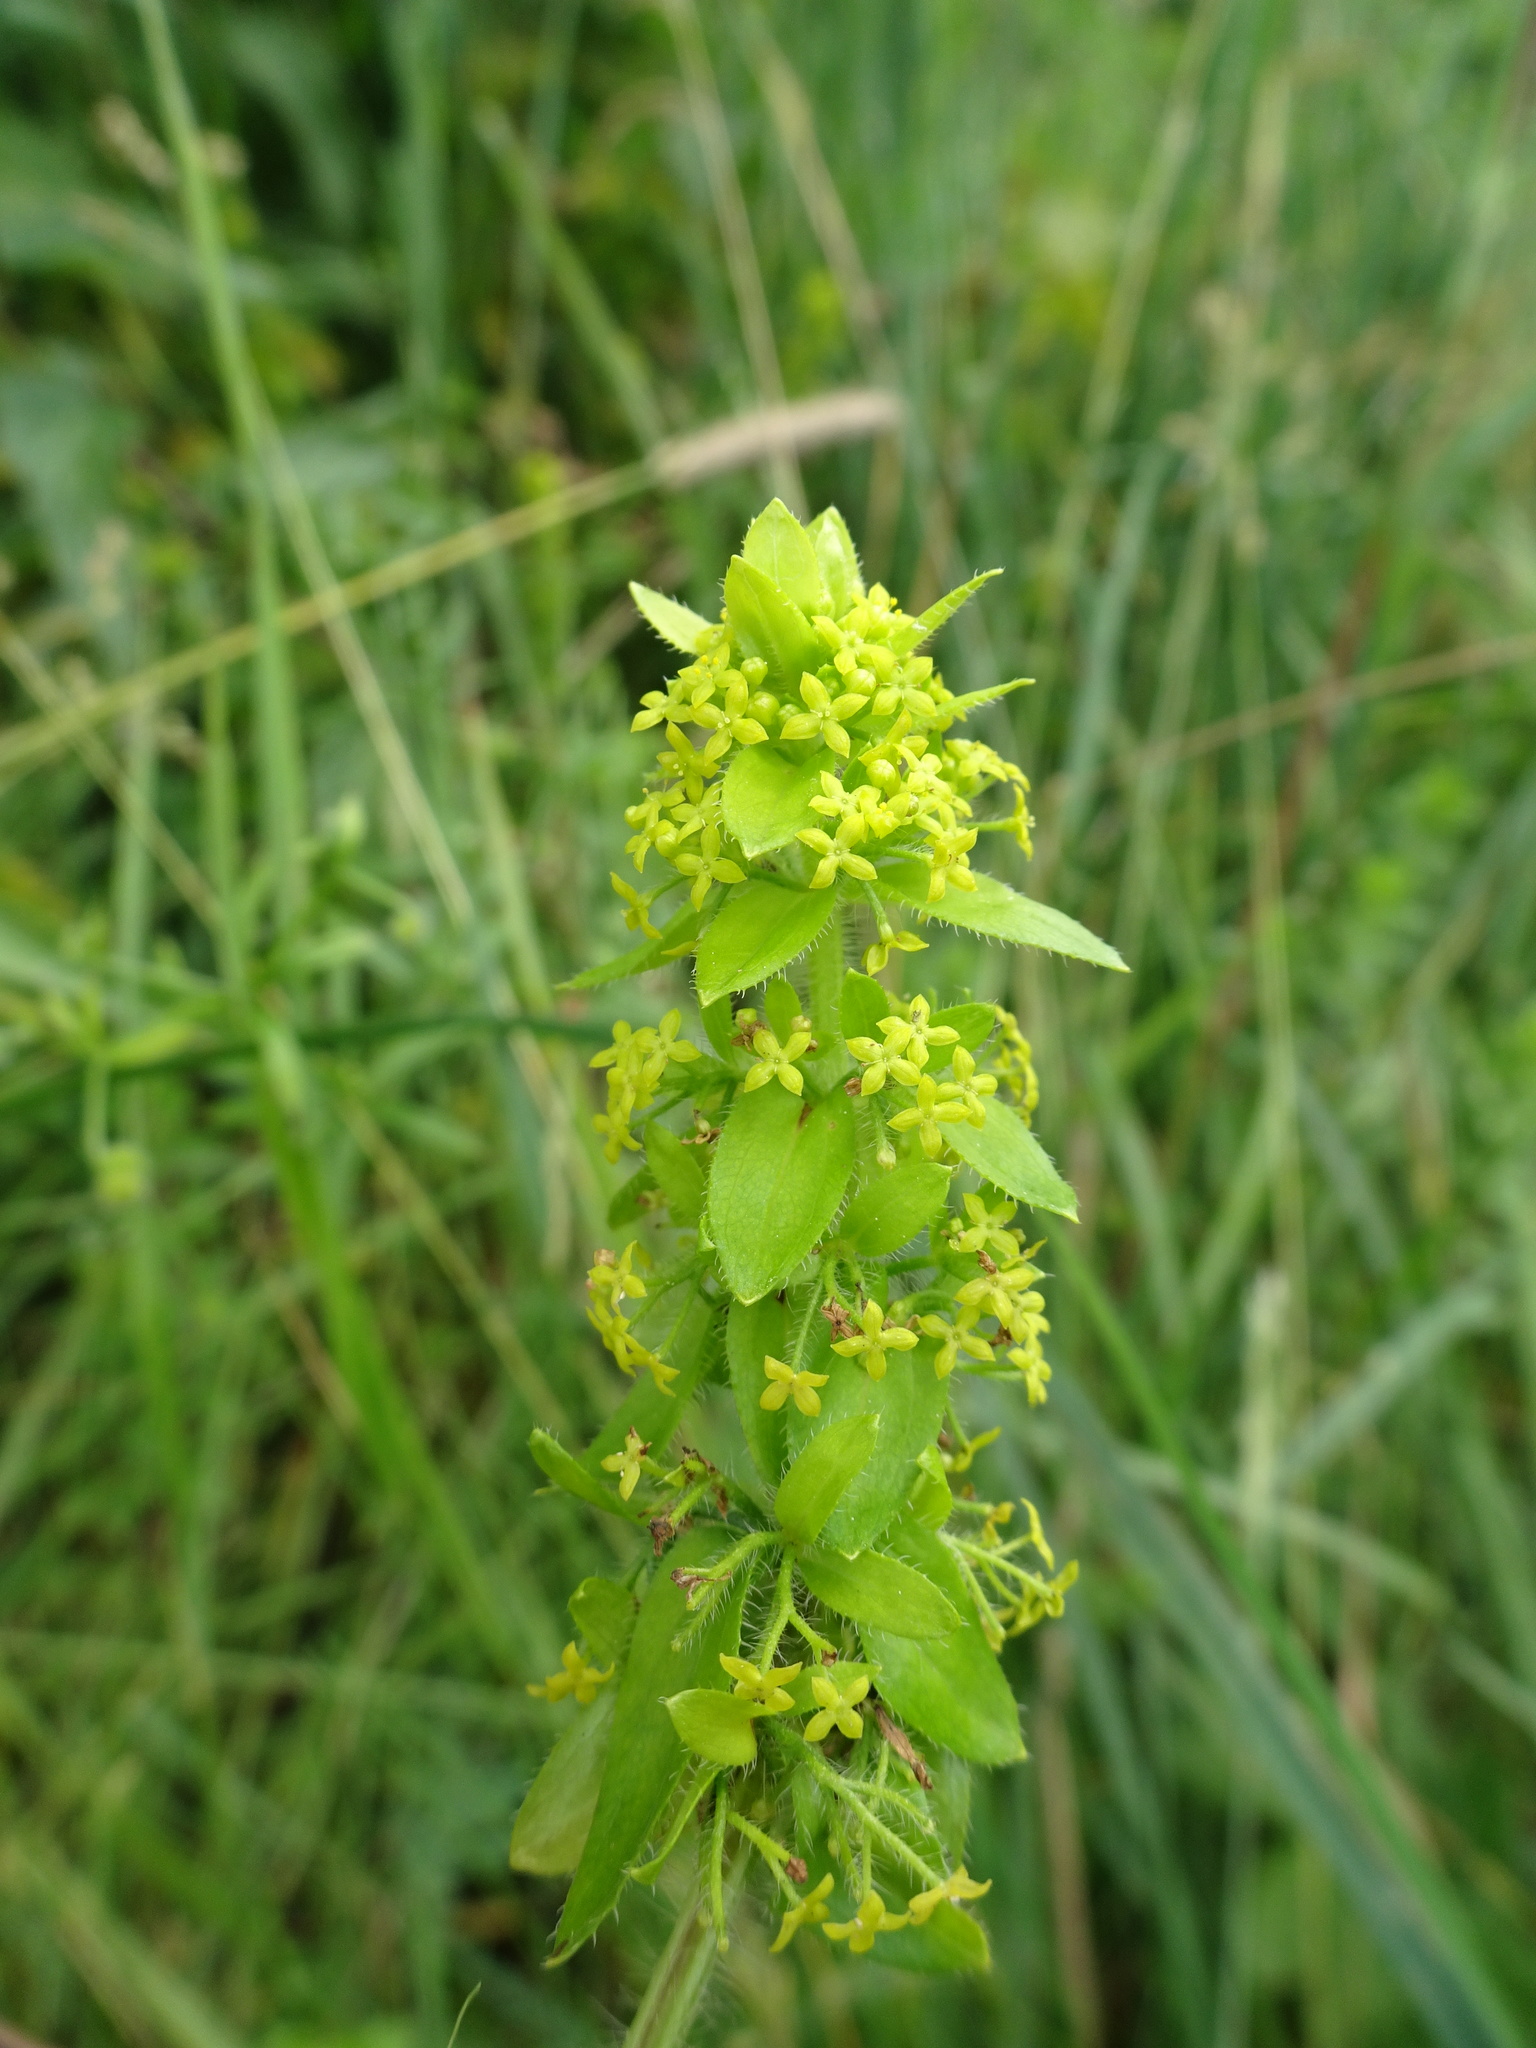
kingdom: Plantae
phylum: Tracheophyta
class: Magnoliopsida
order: Gentianales
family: Rubiaceae
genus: Cruciata
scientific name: Cruciata laevipes
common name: Crosswort
